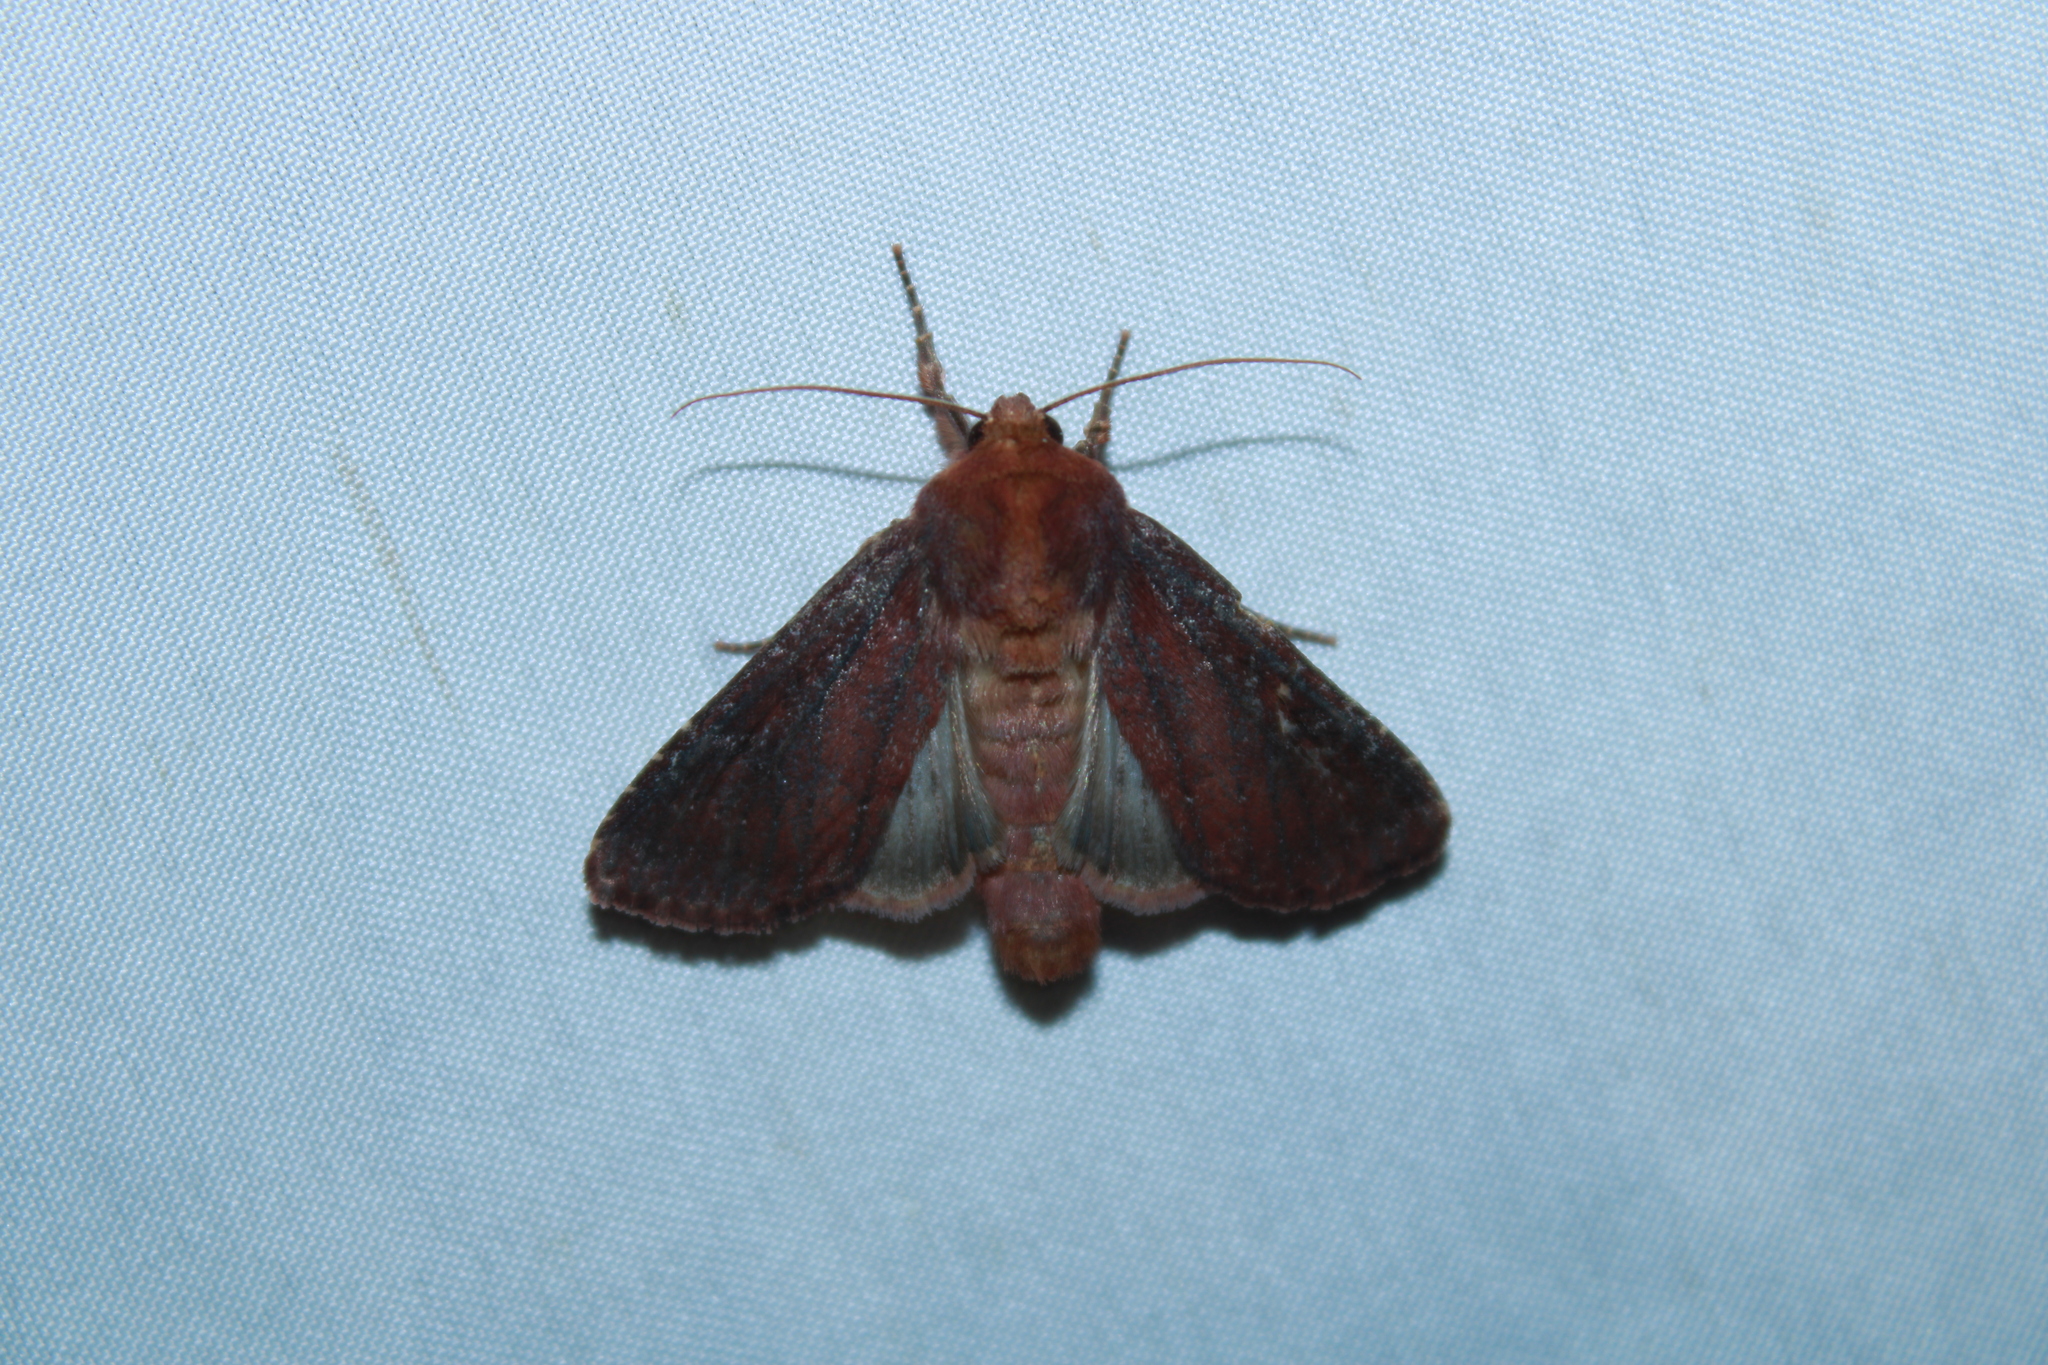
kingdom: Animalia
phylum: Arthropoda
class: Insecta
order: Lepidoptera
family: Noctuidae
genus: Sideridis
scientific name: Sideridis maryx
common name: Maroonwing moth
